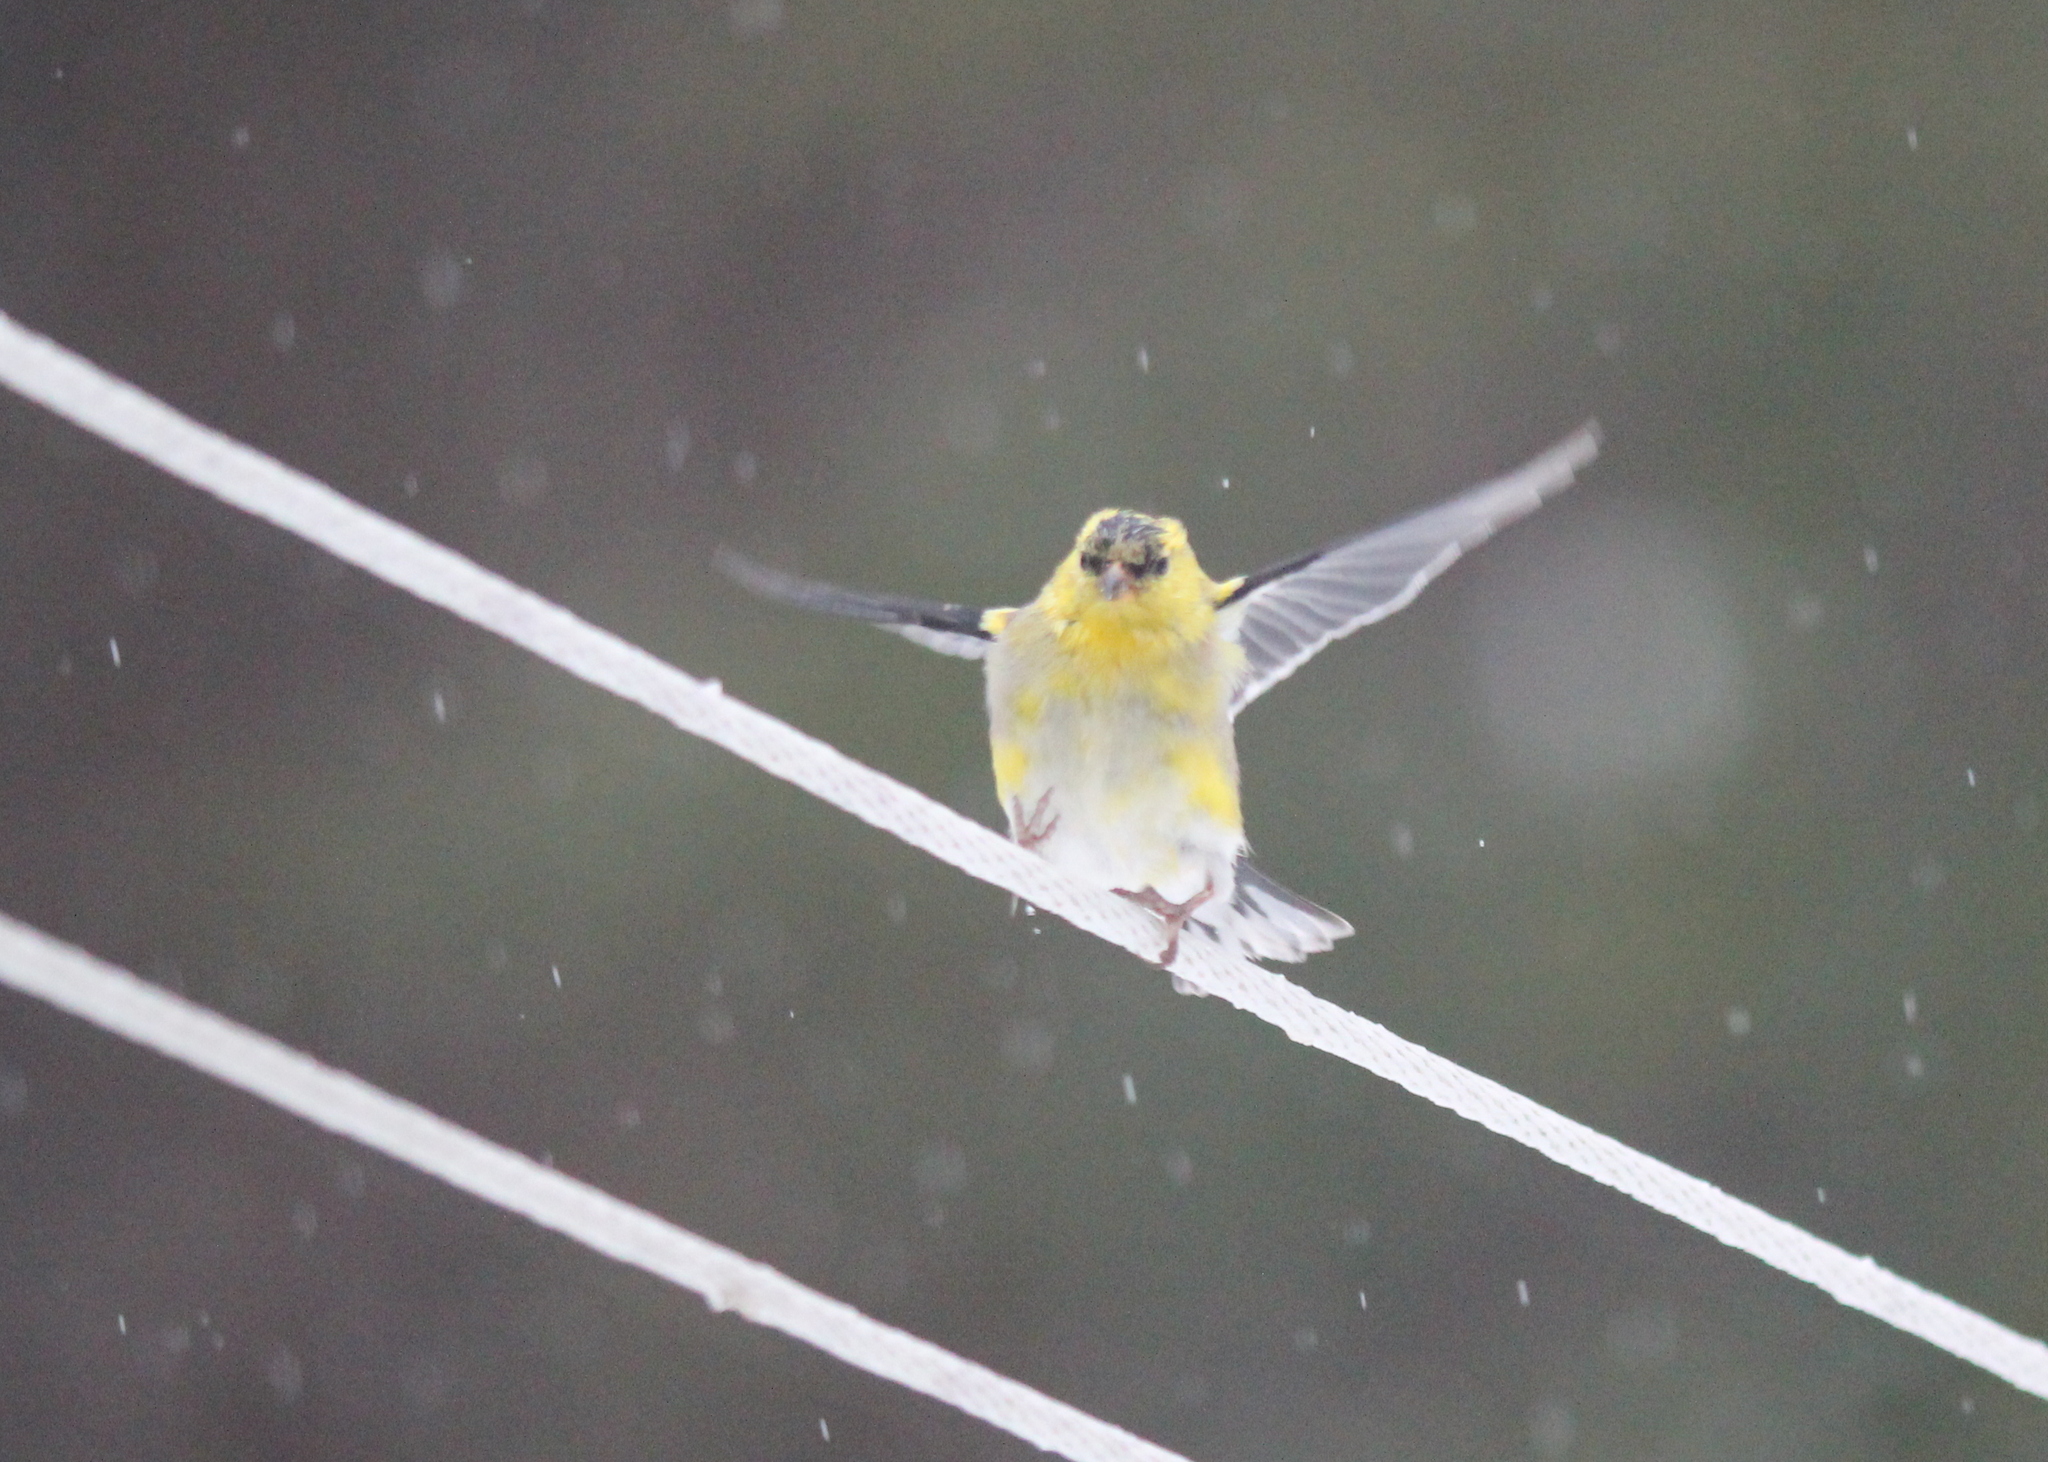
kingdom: Animalia
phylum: Chordata
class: Aves
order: Passeriformes
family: Fringillidae
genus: Spinus
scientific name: Spinus tristis
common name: American goldfinch
